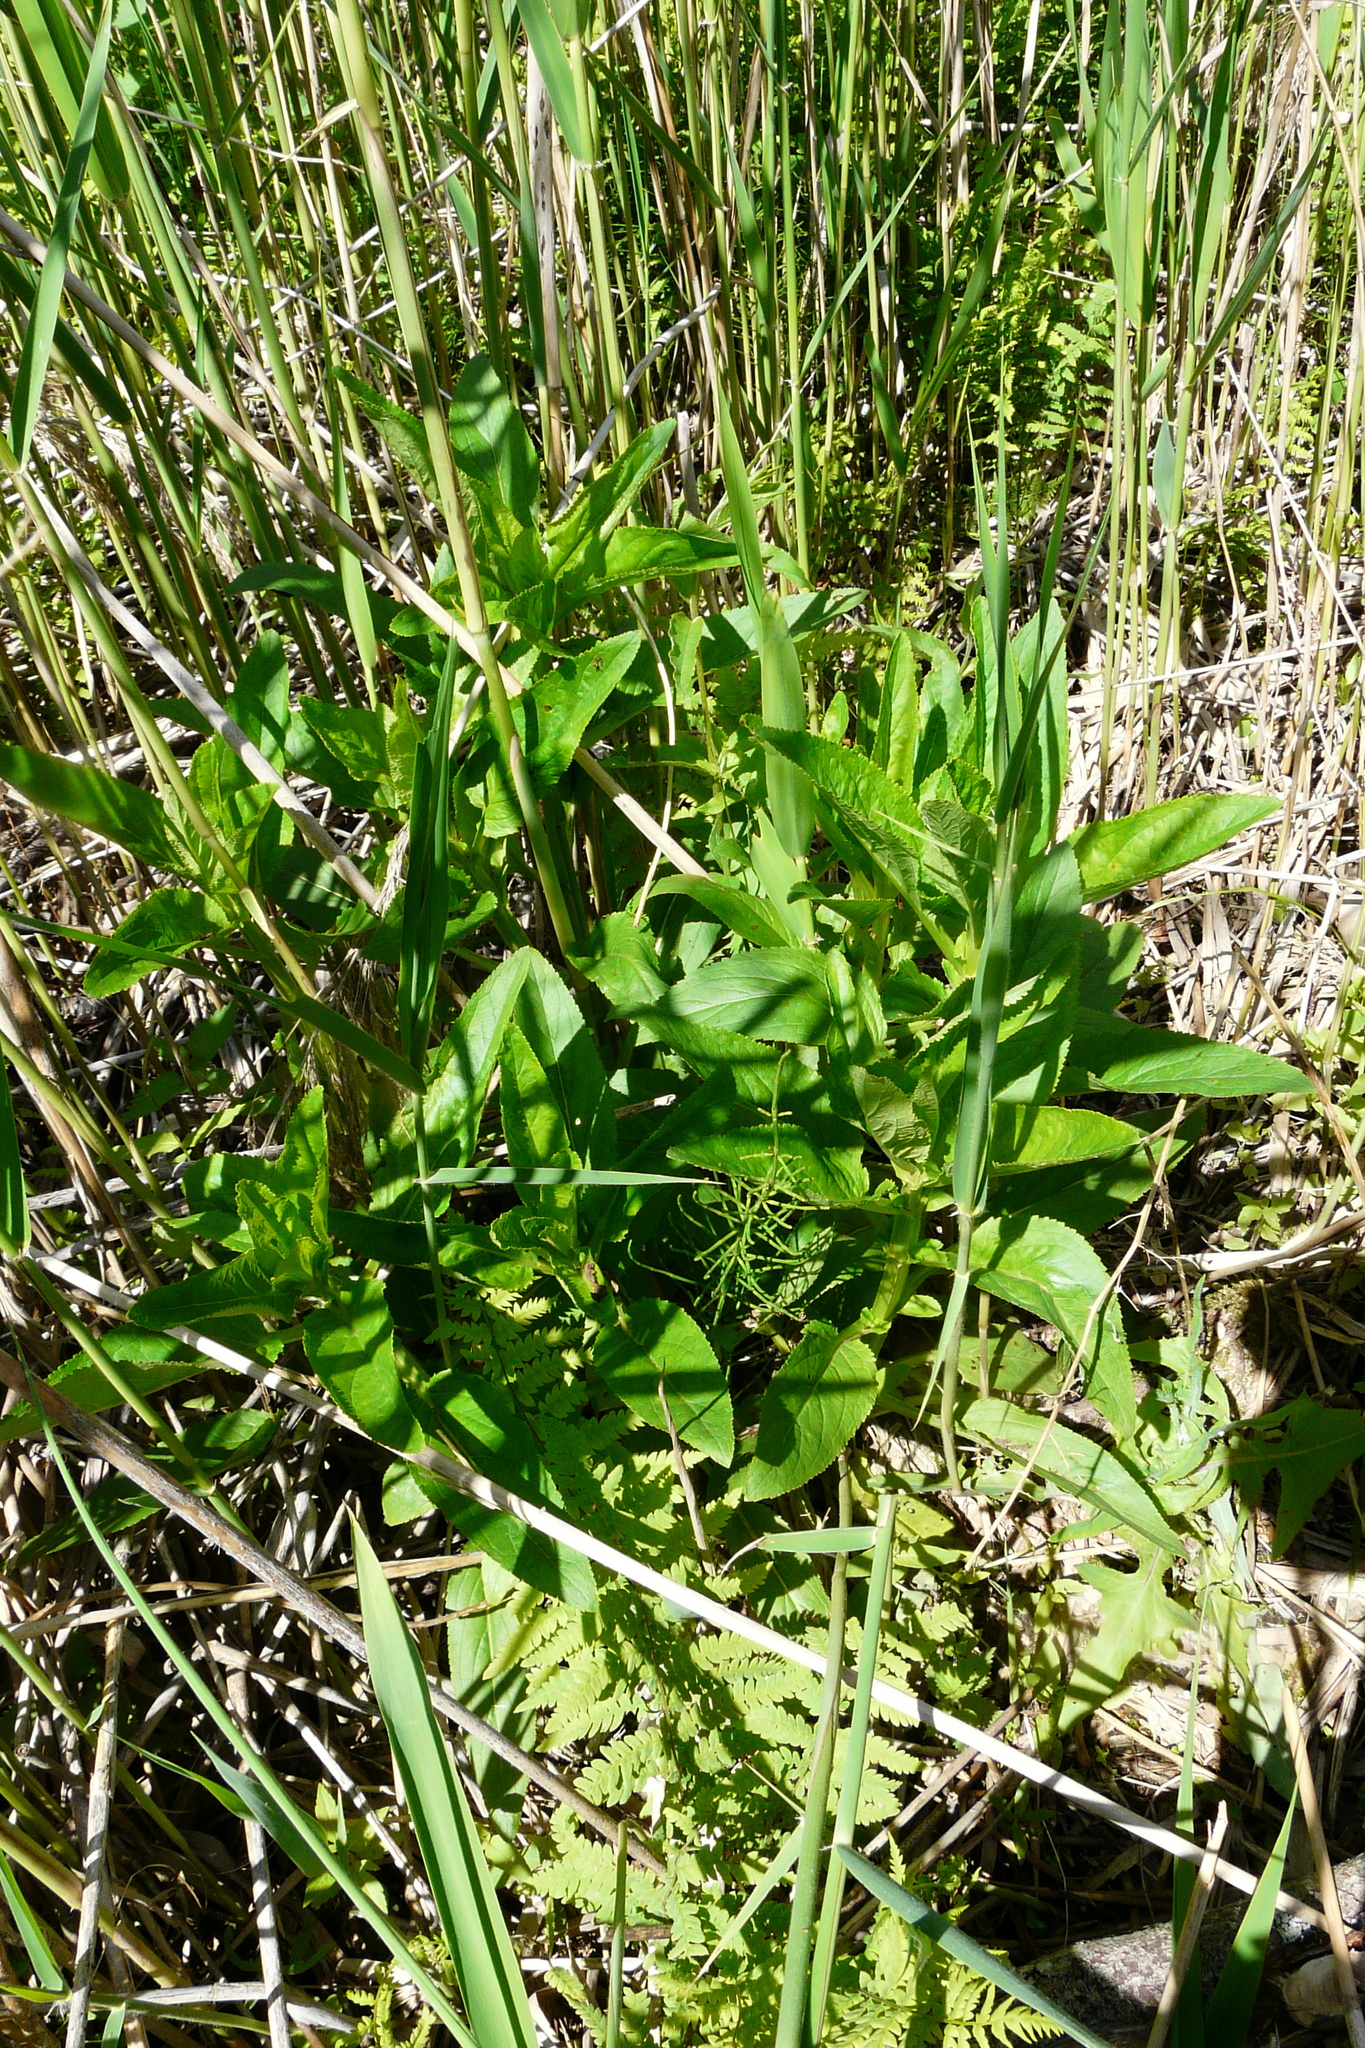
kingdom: Plantae
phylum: Tracheophyta
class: Magnoliopsida
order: Lamiales
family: Scrophulariaceae
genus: Scrophularia
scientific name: Scrophularia umbrosa
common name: Green figwort
